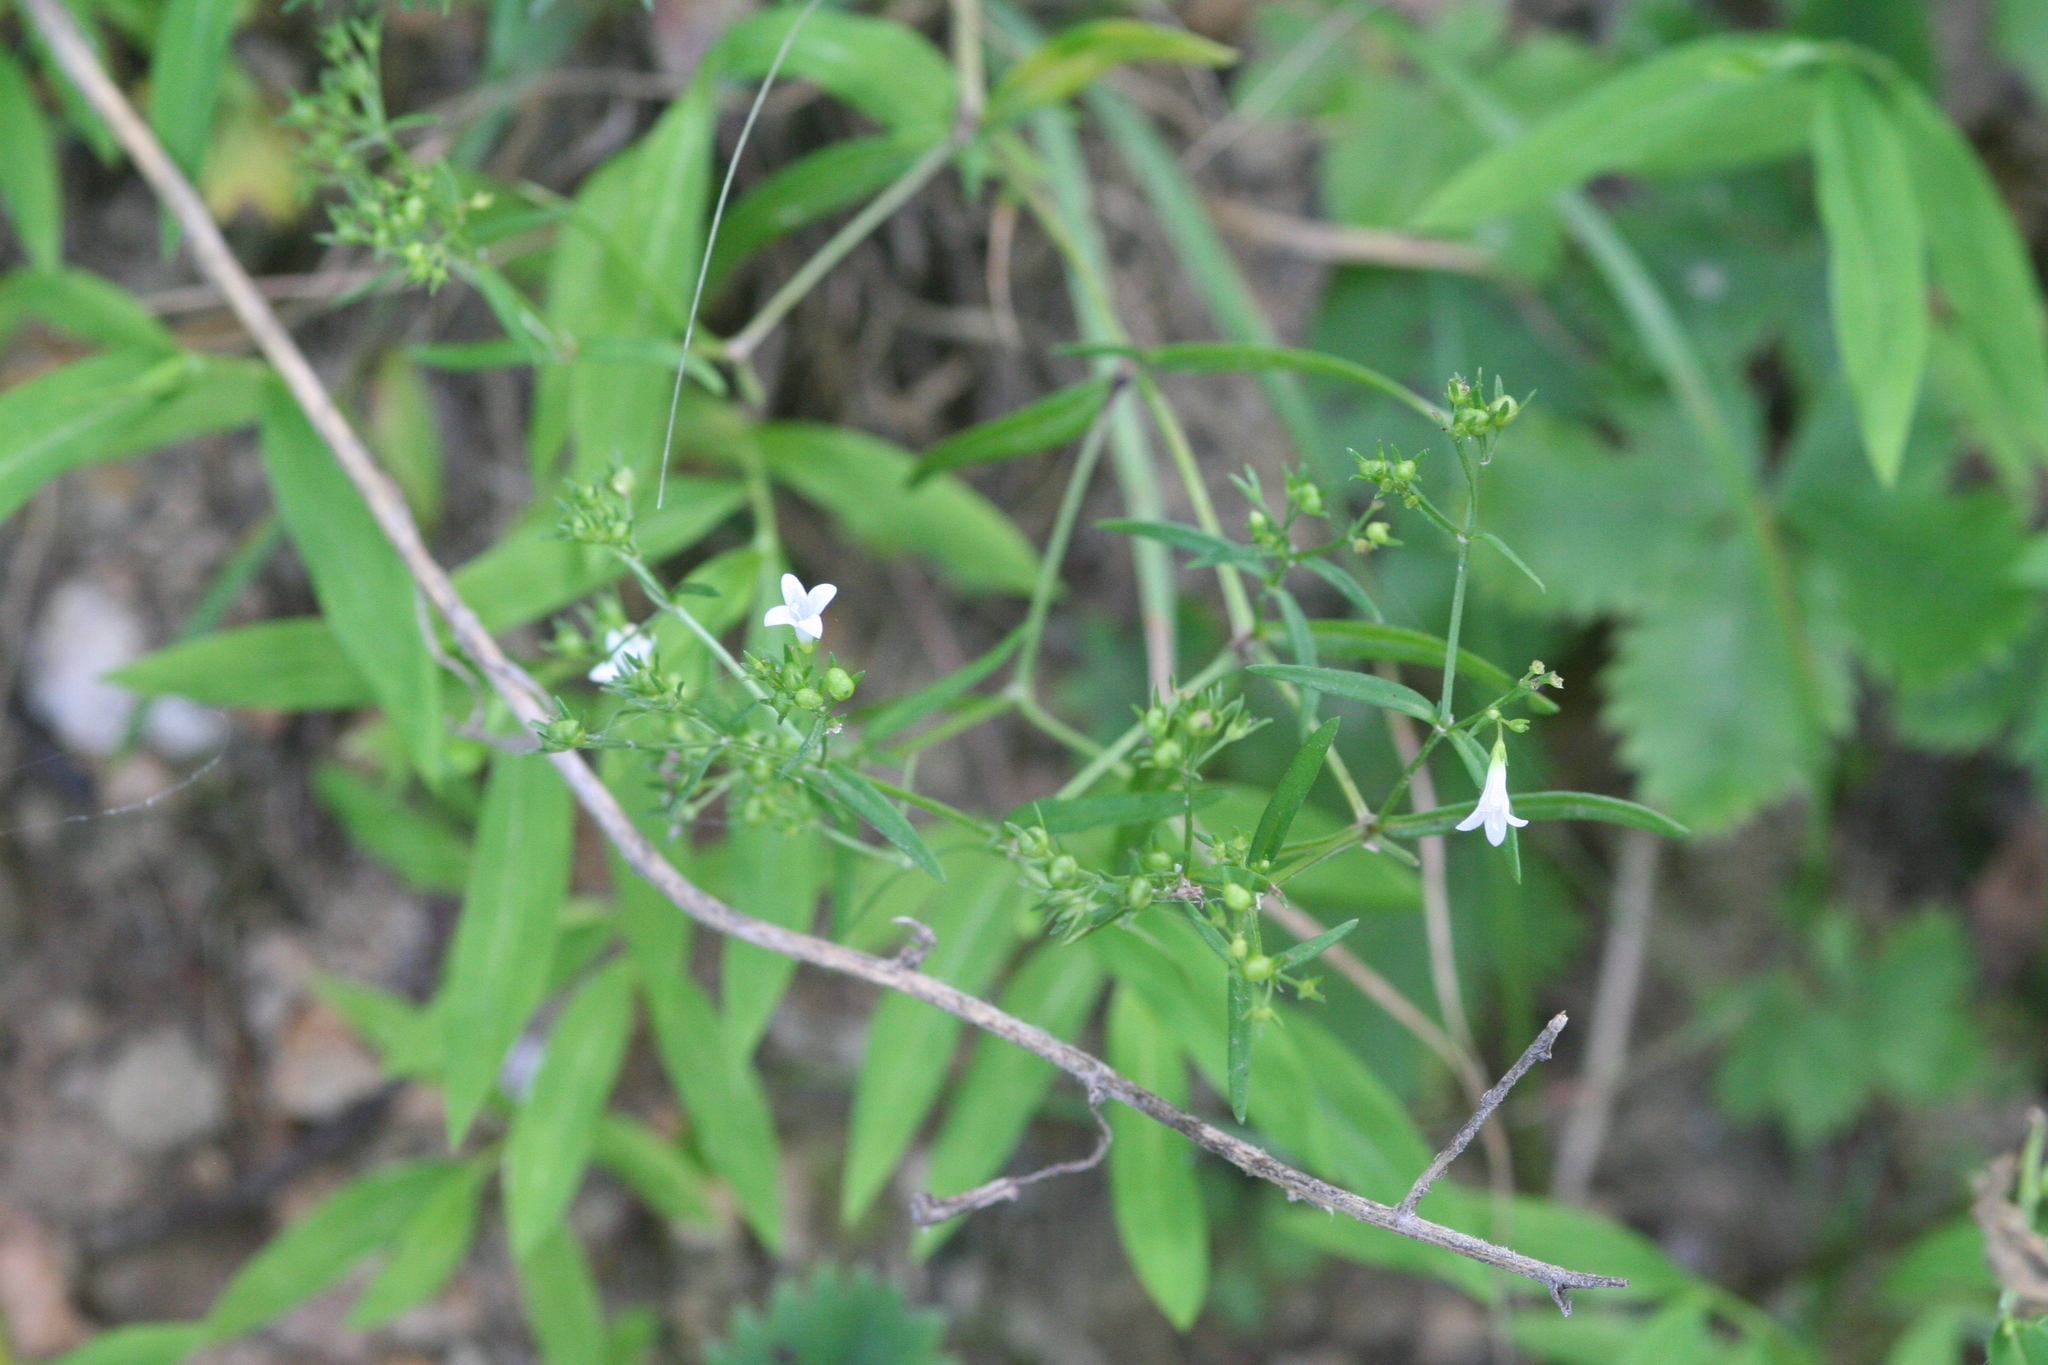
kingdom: Plantae
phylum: Tracheophyta
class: Magnoliopsida
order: Gentianales
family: Rubiaceae
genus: Houstonia
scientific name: Houstonia longifolia
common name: Long-leaved bluets
